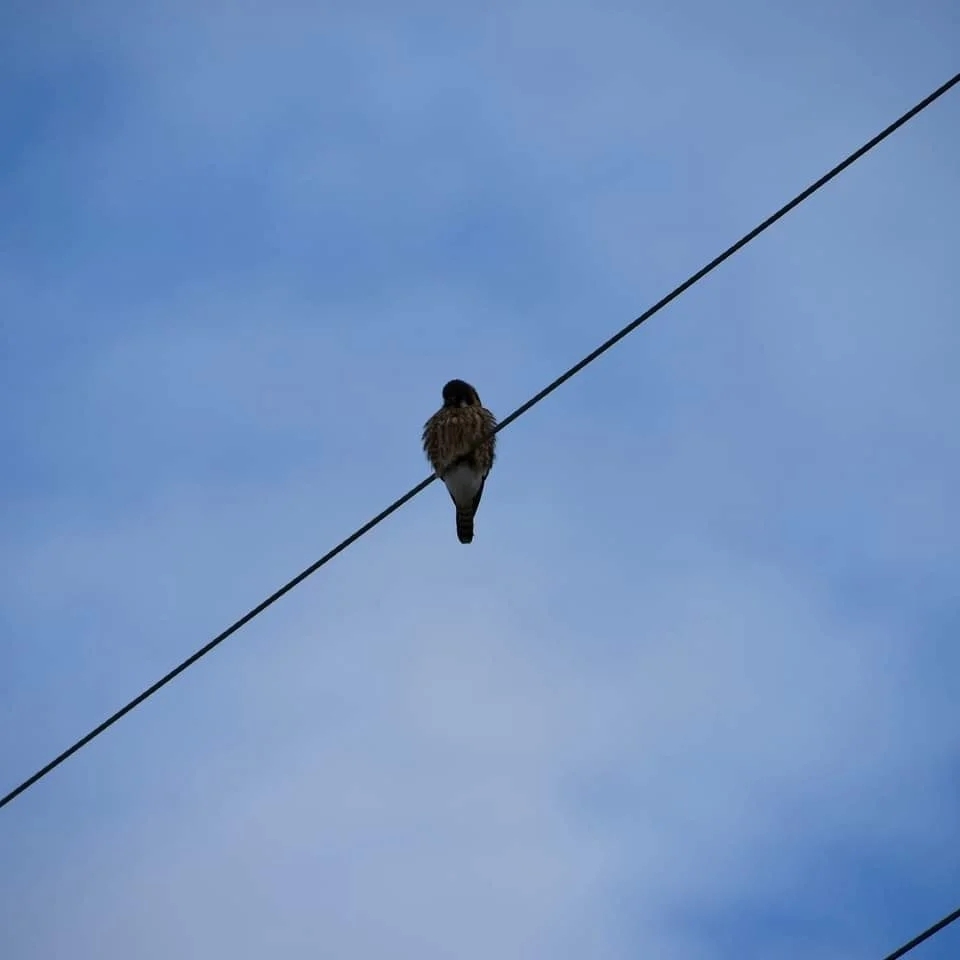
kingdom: Animalia
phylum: Chordata
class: Aves
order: Falconiformes
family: Falconidae
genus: Falco
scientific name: Falco sparverius
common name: American kestrel
